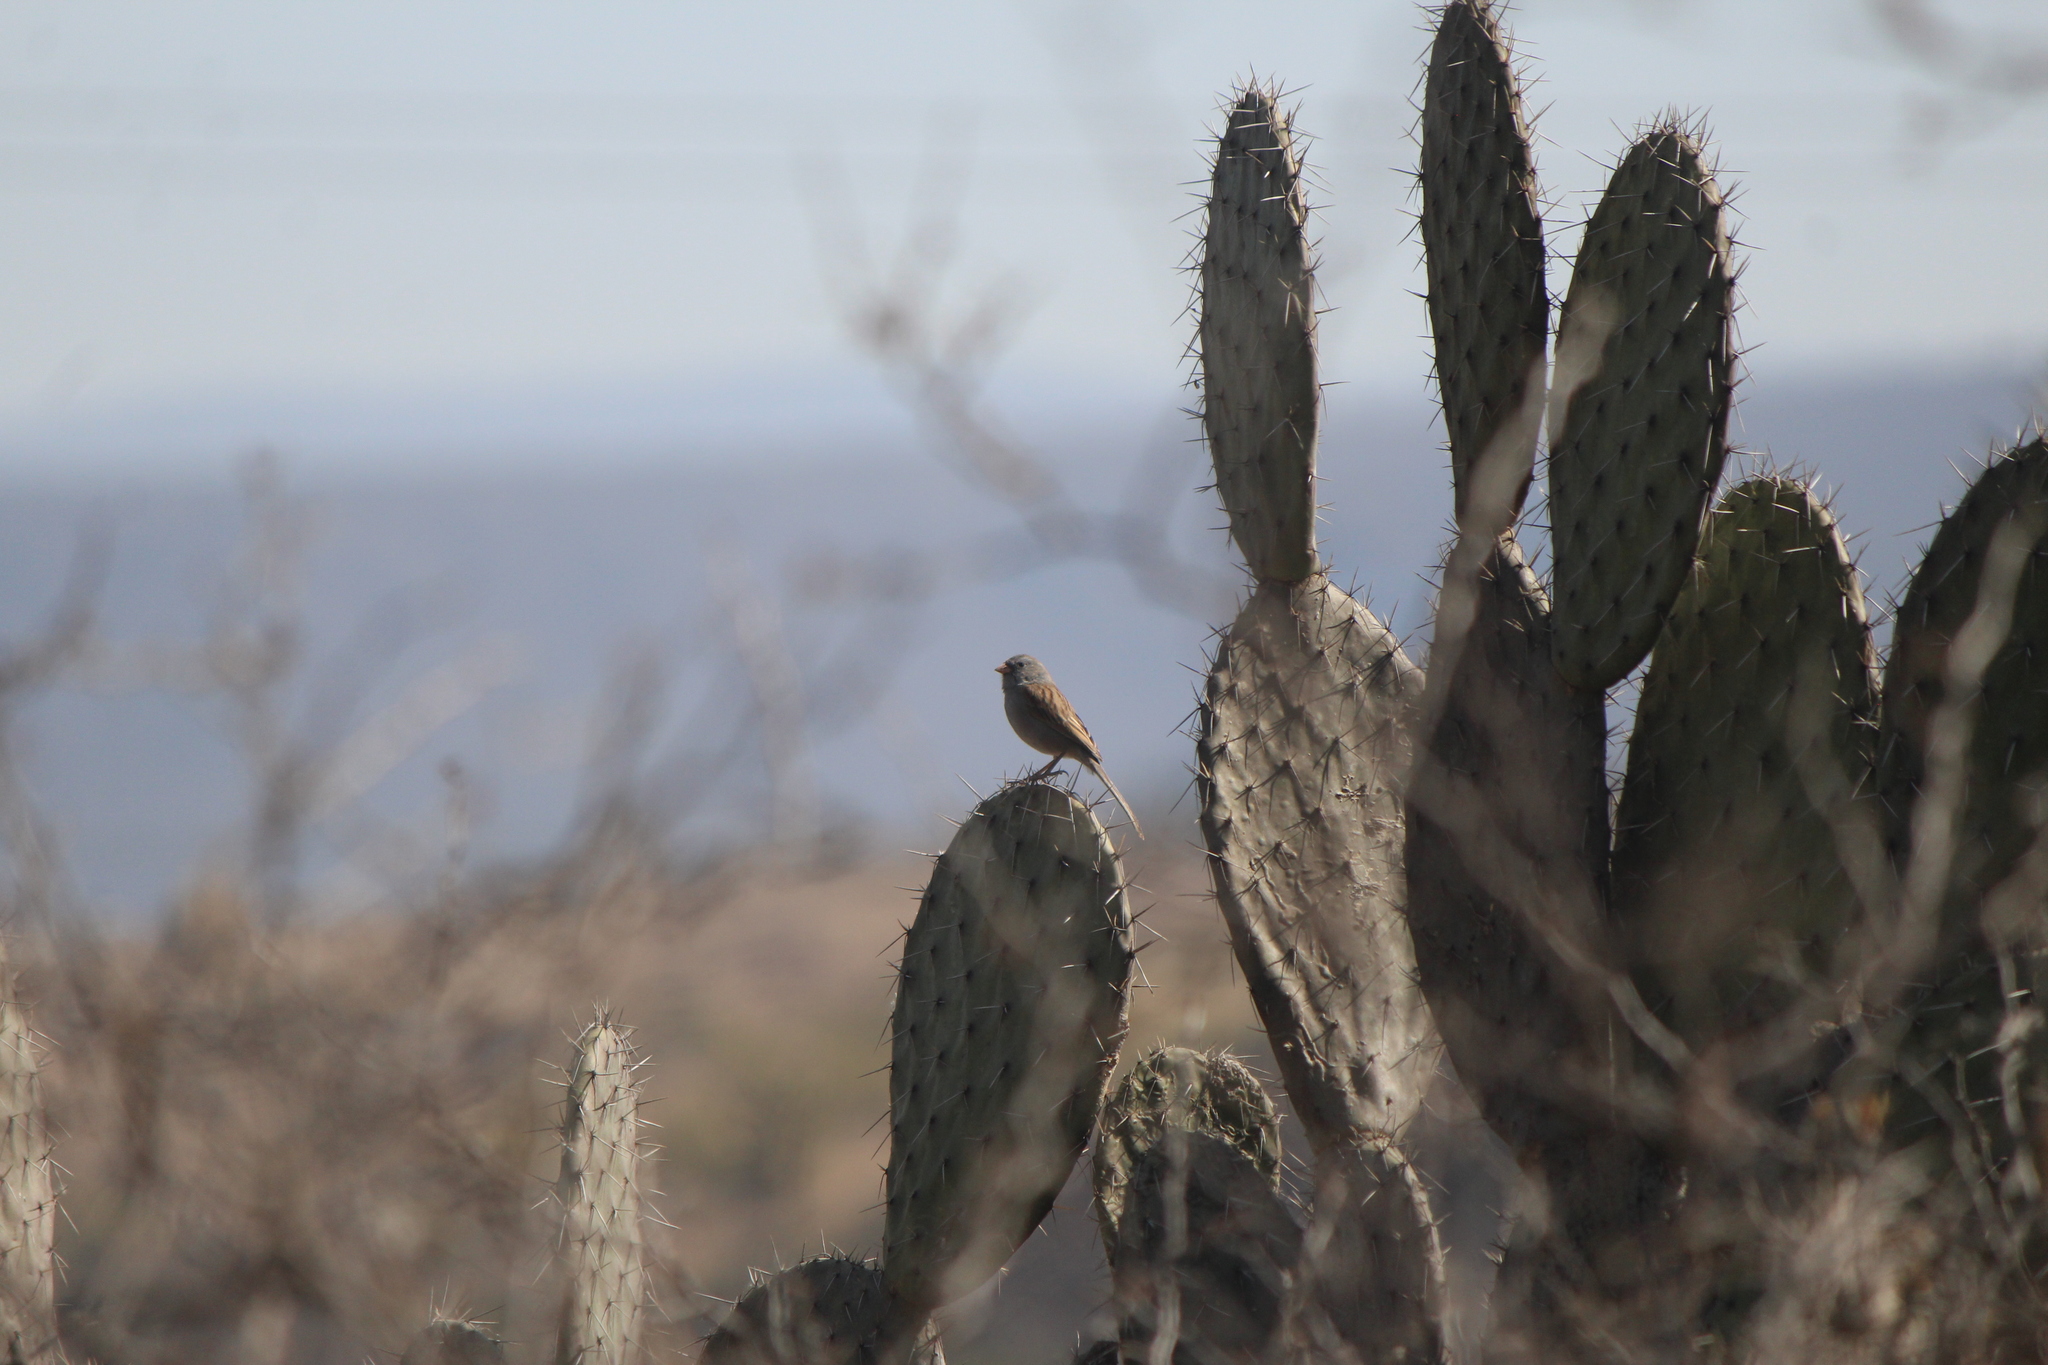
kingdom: Animalia
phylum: Chordata
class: Aves
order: Passeriformes
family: Passerellidae
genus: Spizella
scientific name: Spizella atrogularis
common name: Black-chinned sparrow
